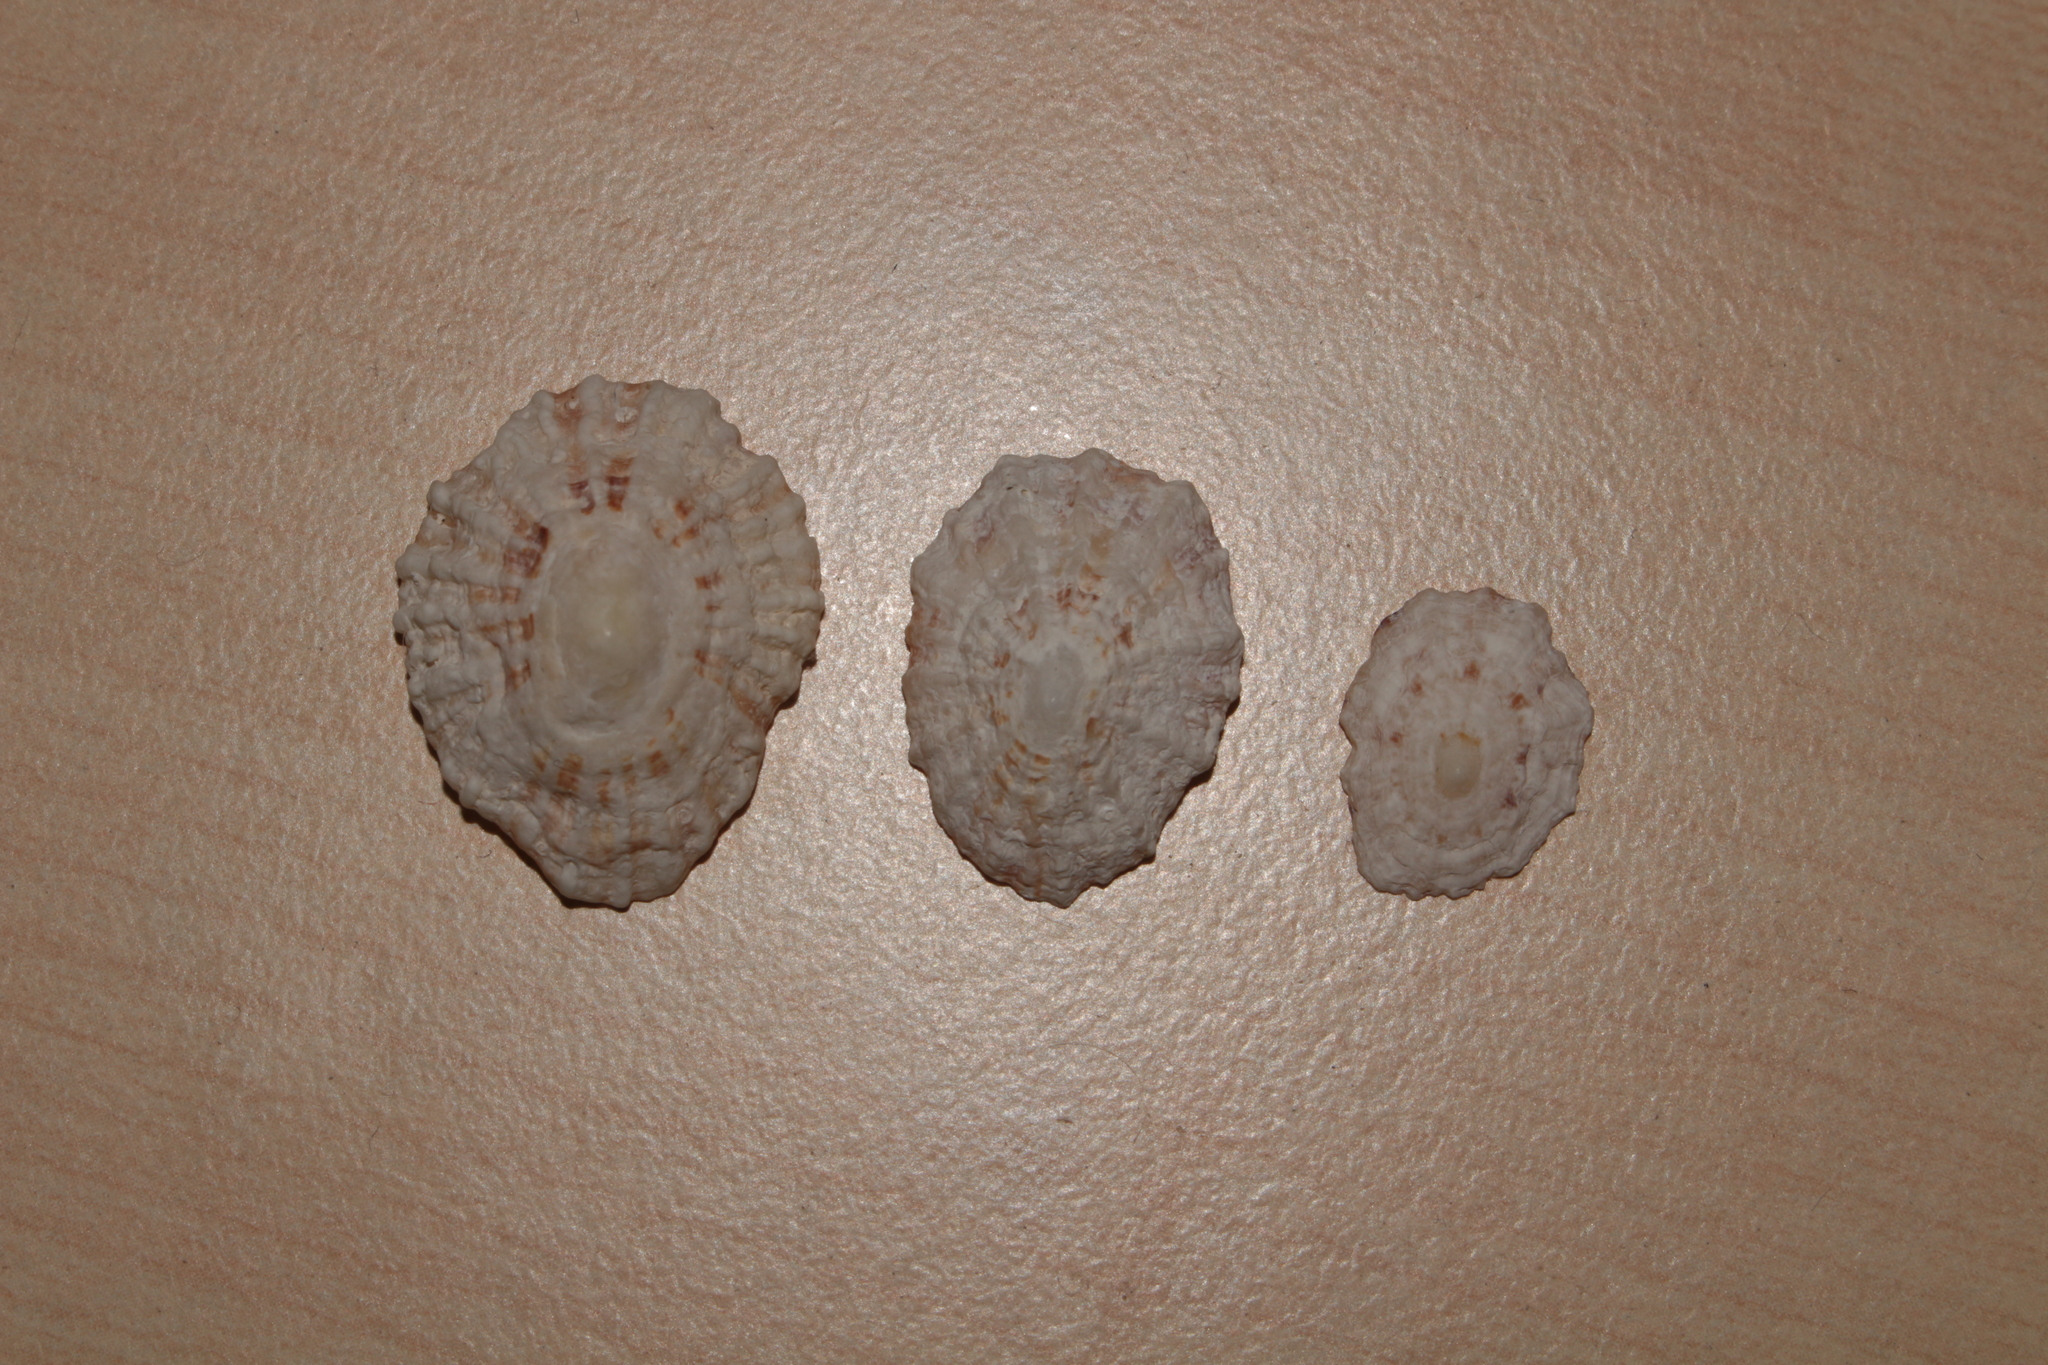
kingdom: Animalia
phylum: Mollusca
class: Gastropoda
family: Patellidae
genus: Patella
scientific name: Patella
